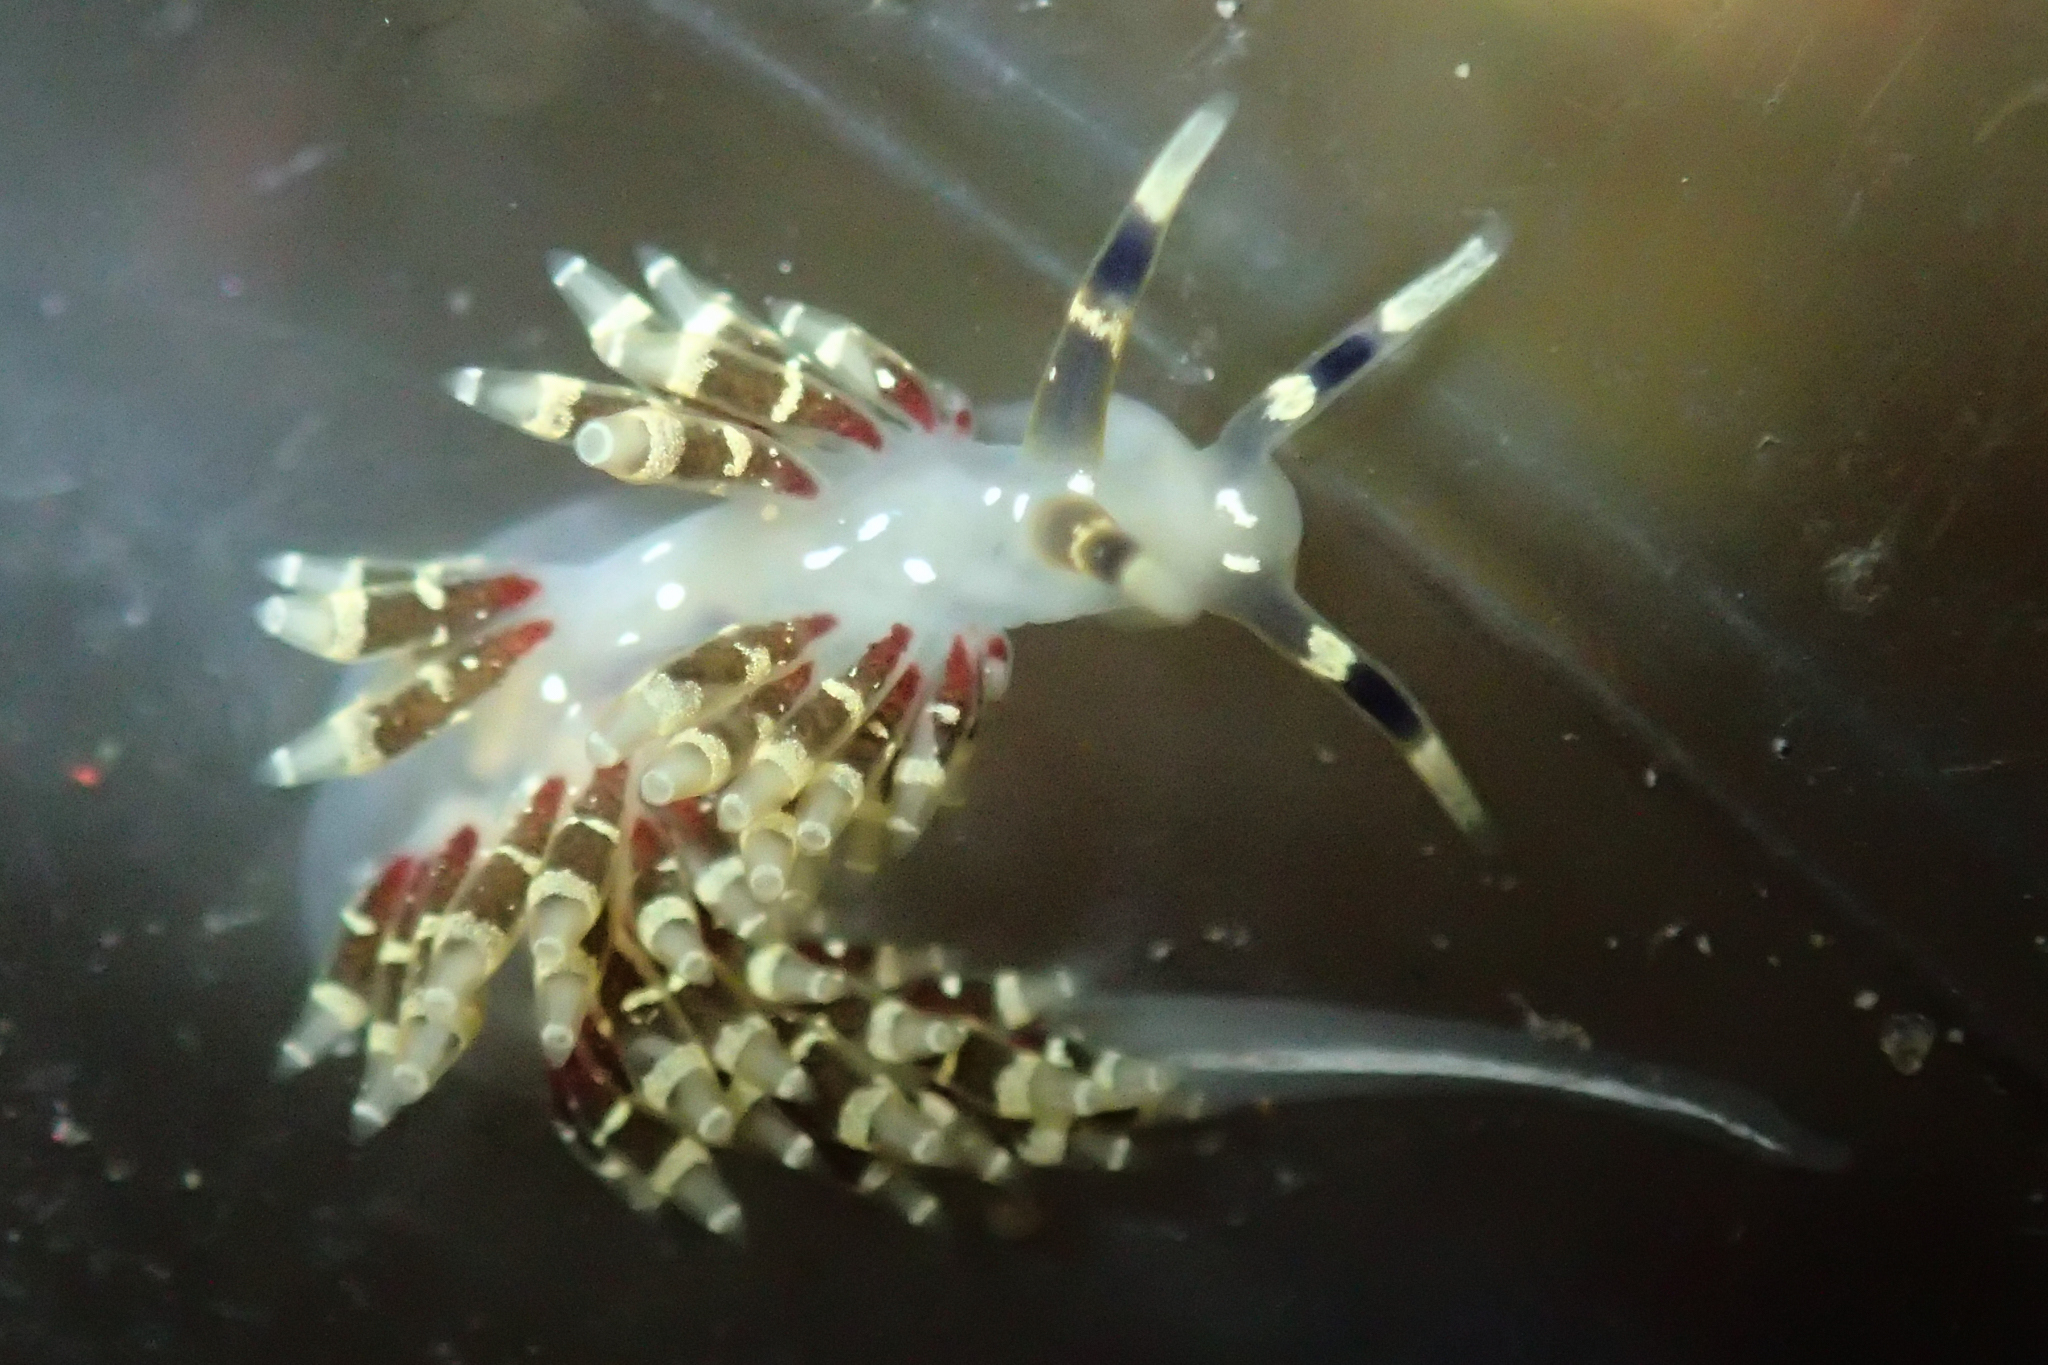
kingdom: Animalia
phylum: Mollusca
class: Gastropoda
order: Nudibranchia
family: Abronicidae
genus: Abronica
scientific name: Abronica abronia
